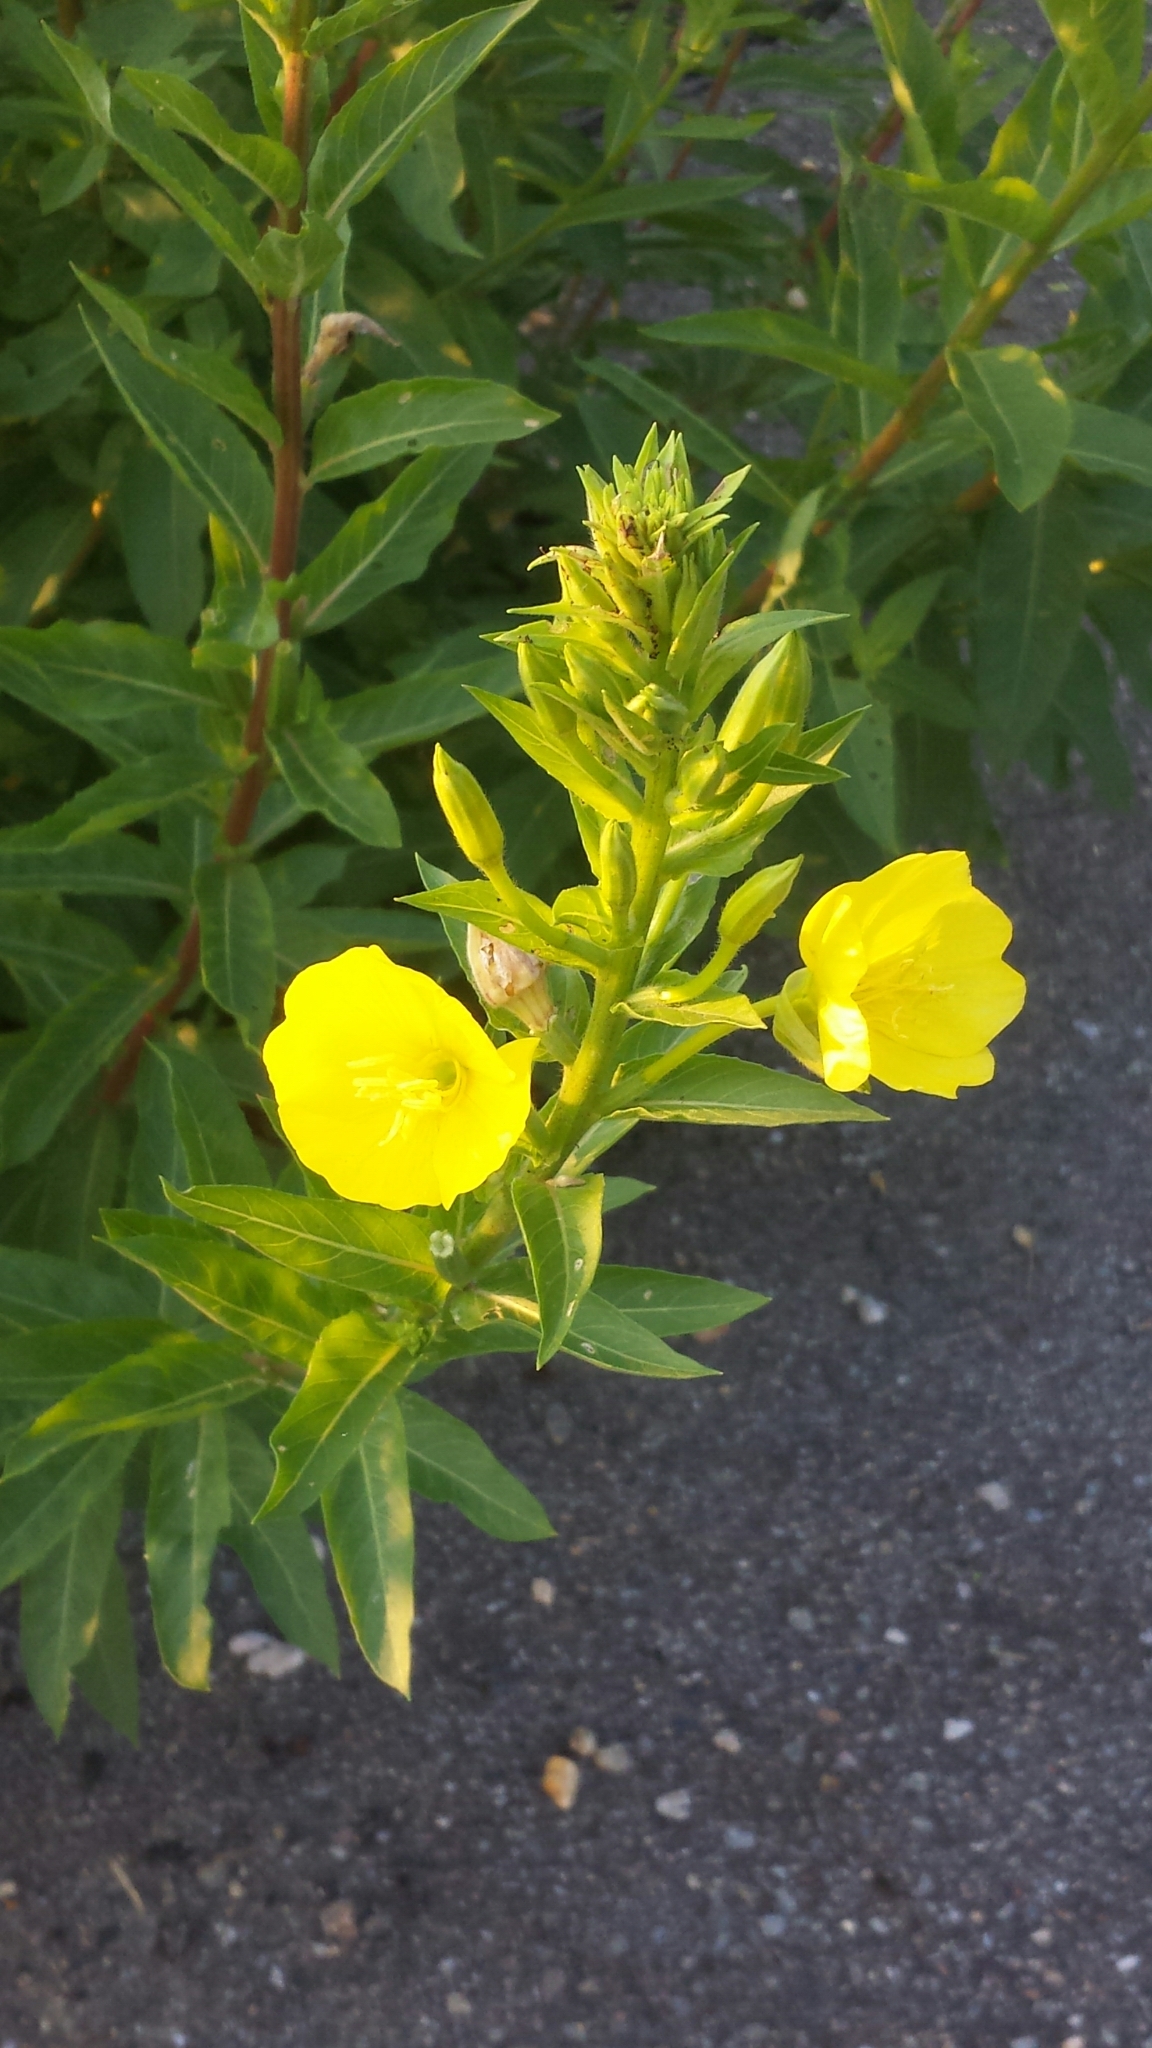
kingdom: Plantae
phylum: Tracheophyta
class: Magnoliopsida
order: Myrtales
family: Onagraceae
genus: Oenothera
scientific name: Oenothera biennis
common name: Common evening-primrose
